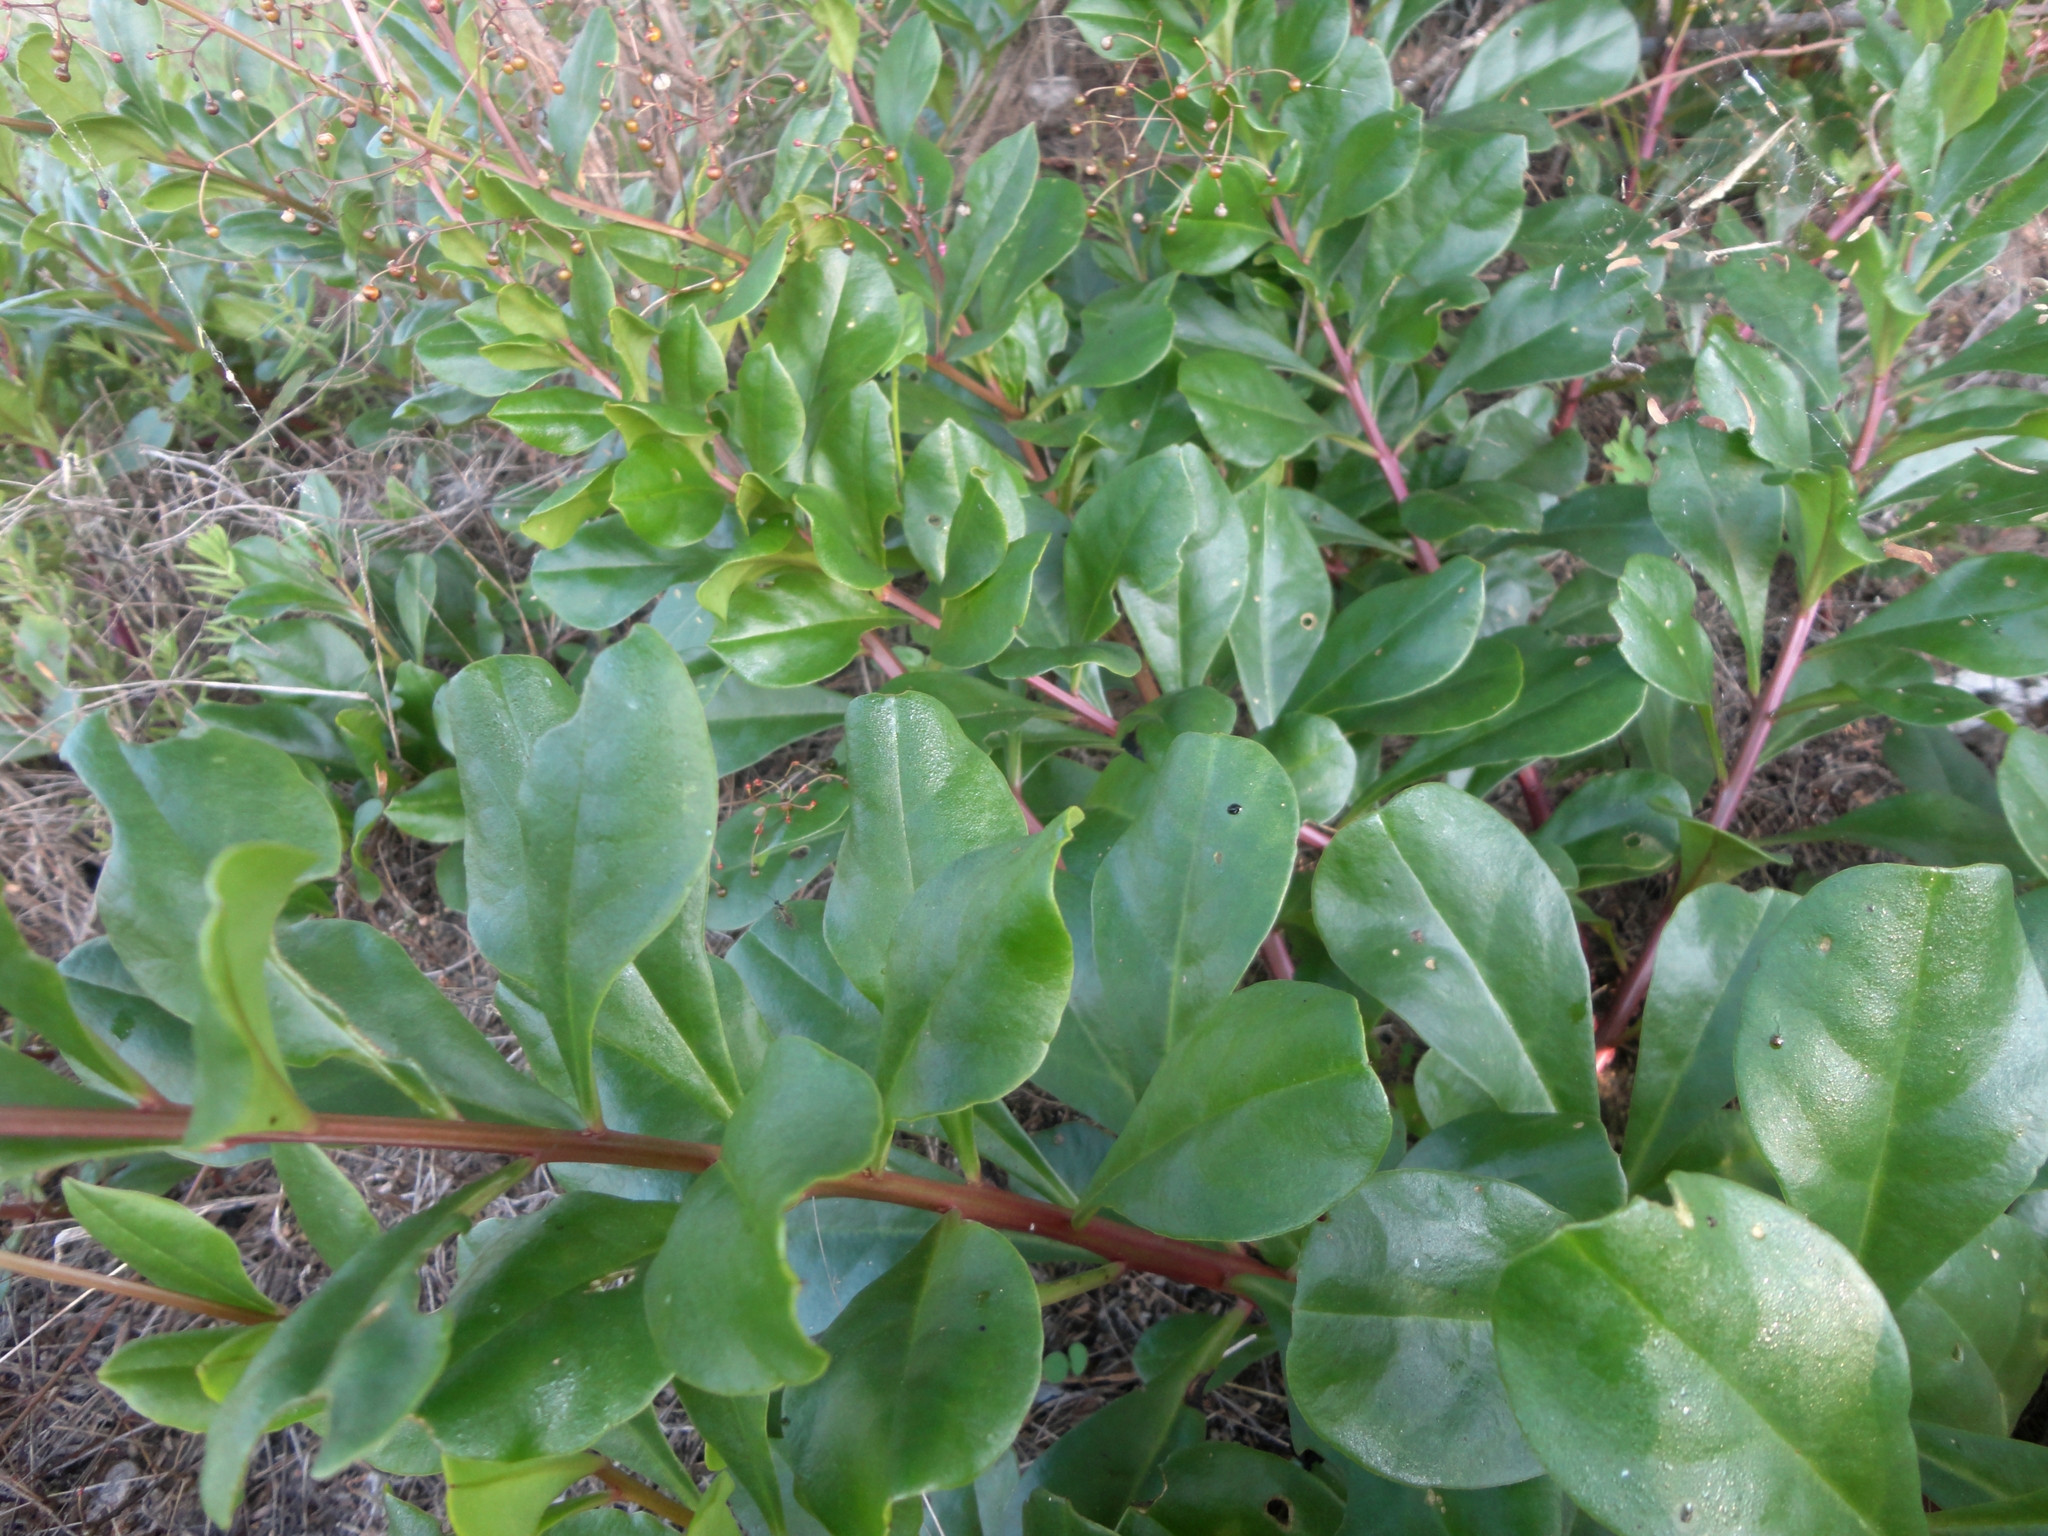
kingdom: Plantae
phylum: Tracheophyta
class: Magnoliopsida
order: Caryophyllales
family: Talinaceae
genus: Talinum
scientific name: Talinum paniculatum
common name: Jewels of opar
